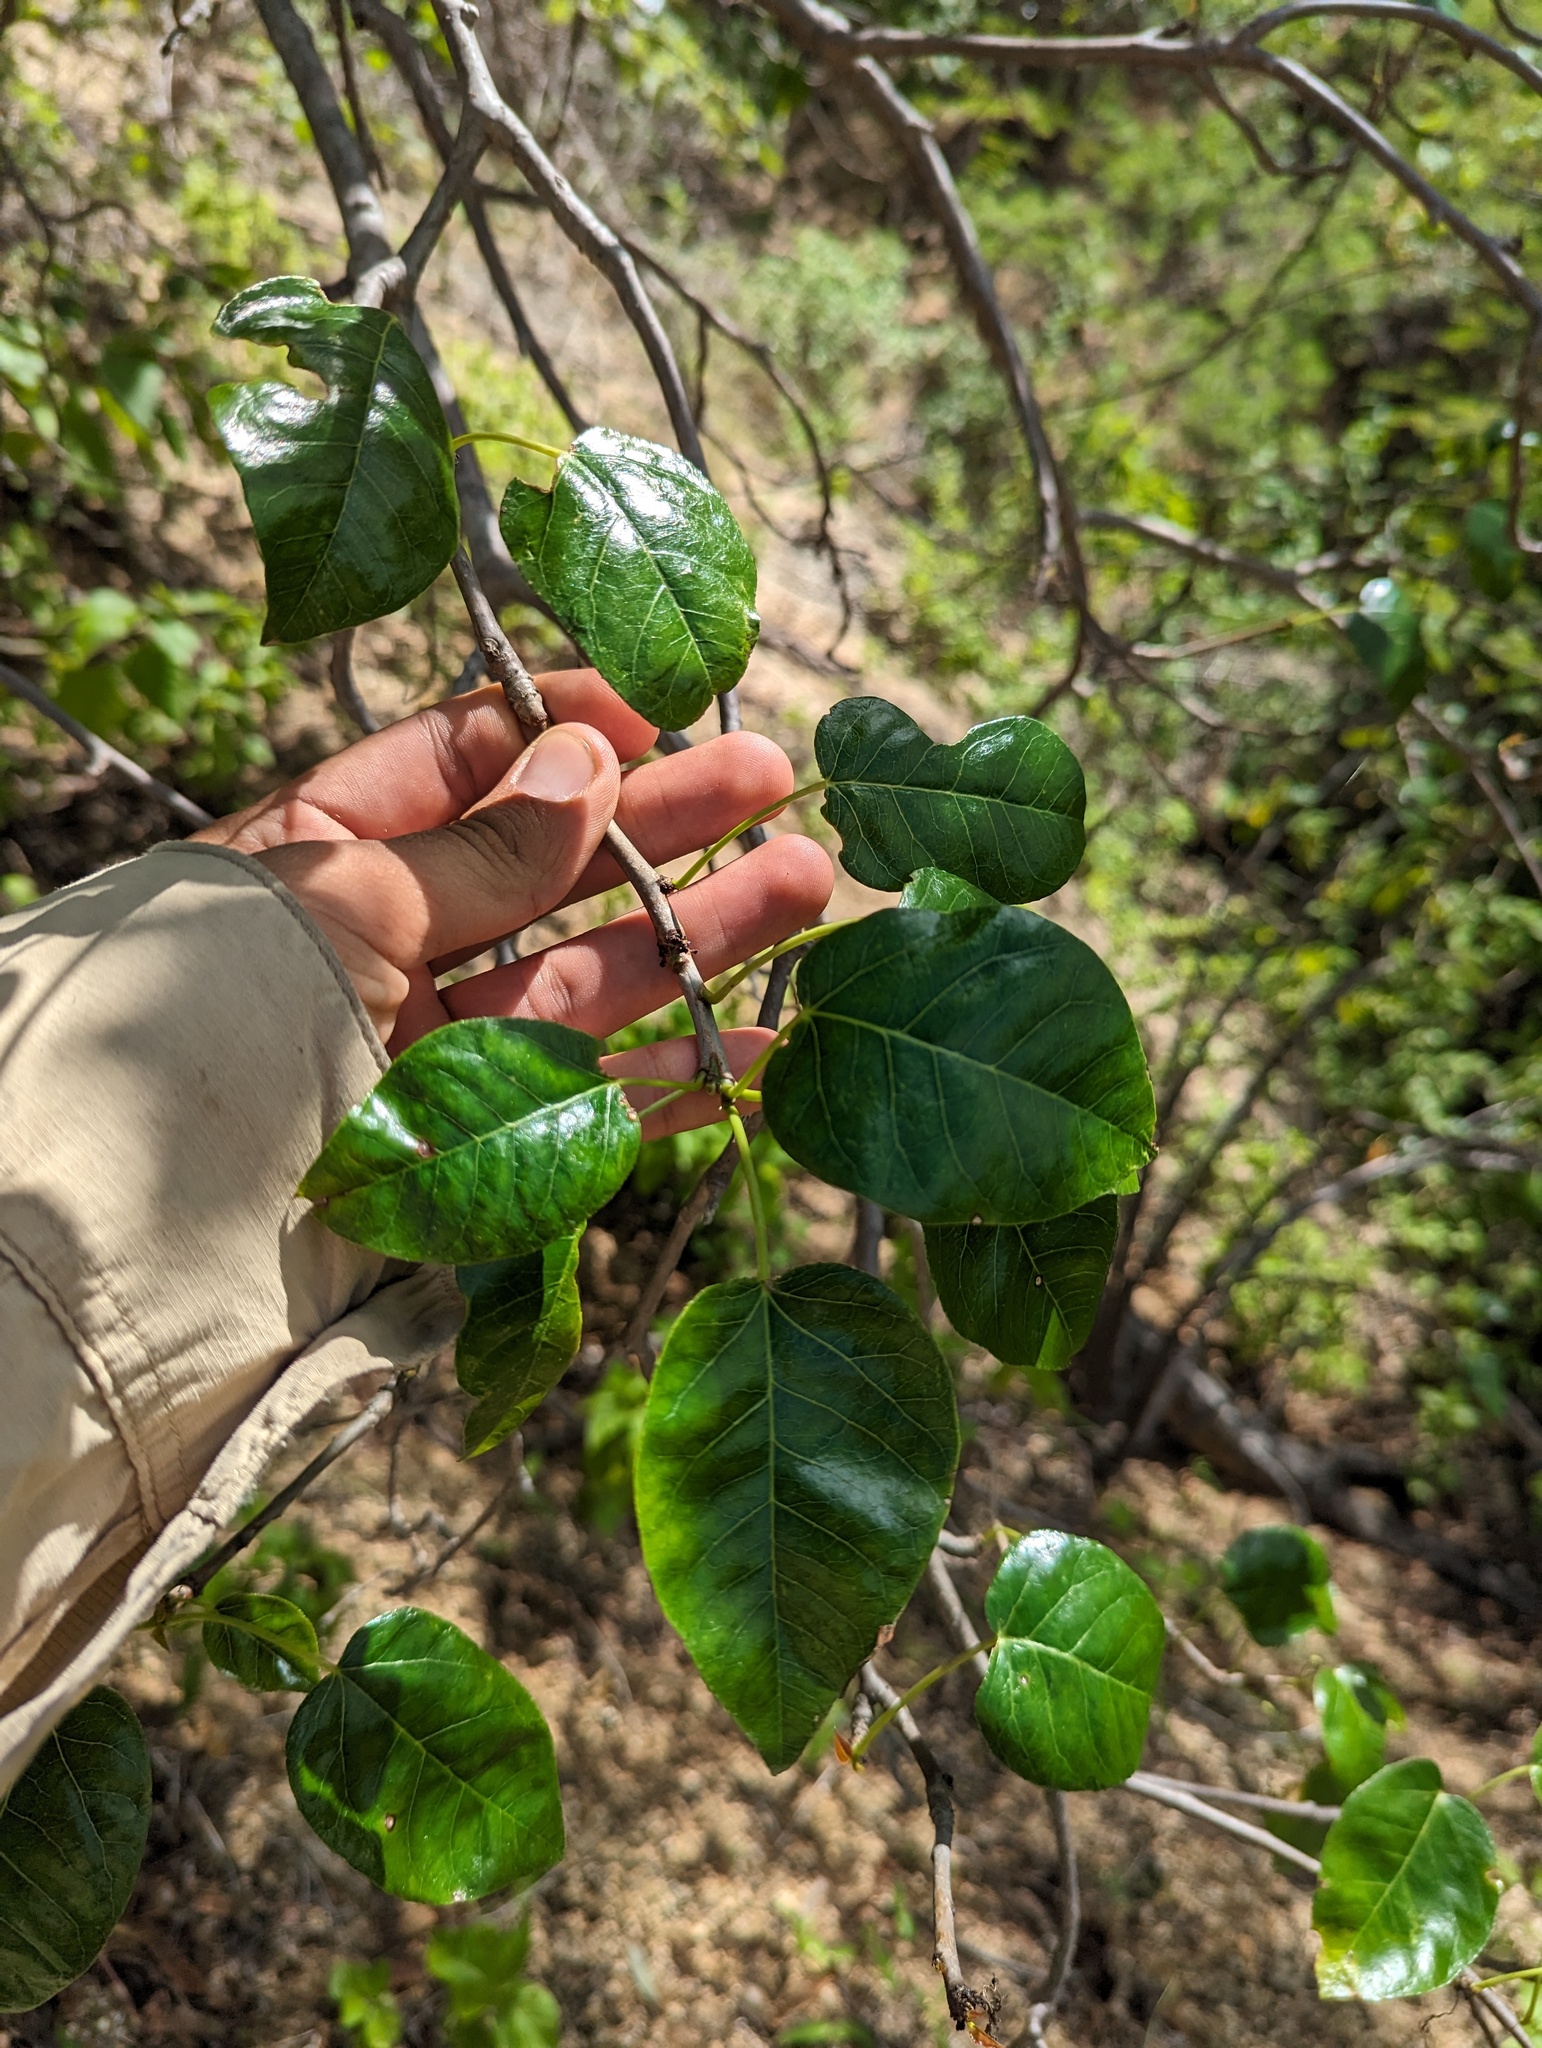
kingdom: Plantae
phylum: Tracheophyta
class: Magnoliopsida
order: Malpighiales
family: Euphorbiaceae
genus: Jatropha
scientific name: Jatropha vernicosa
